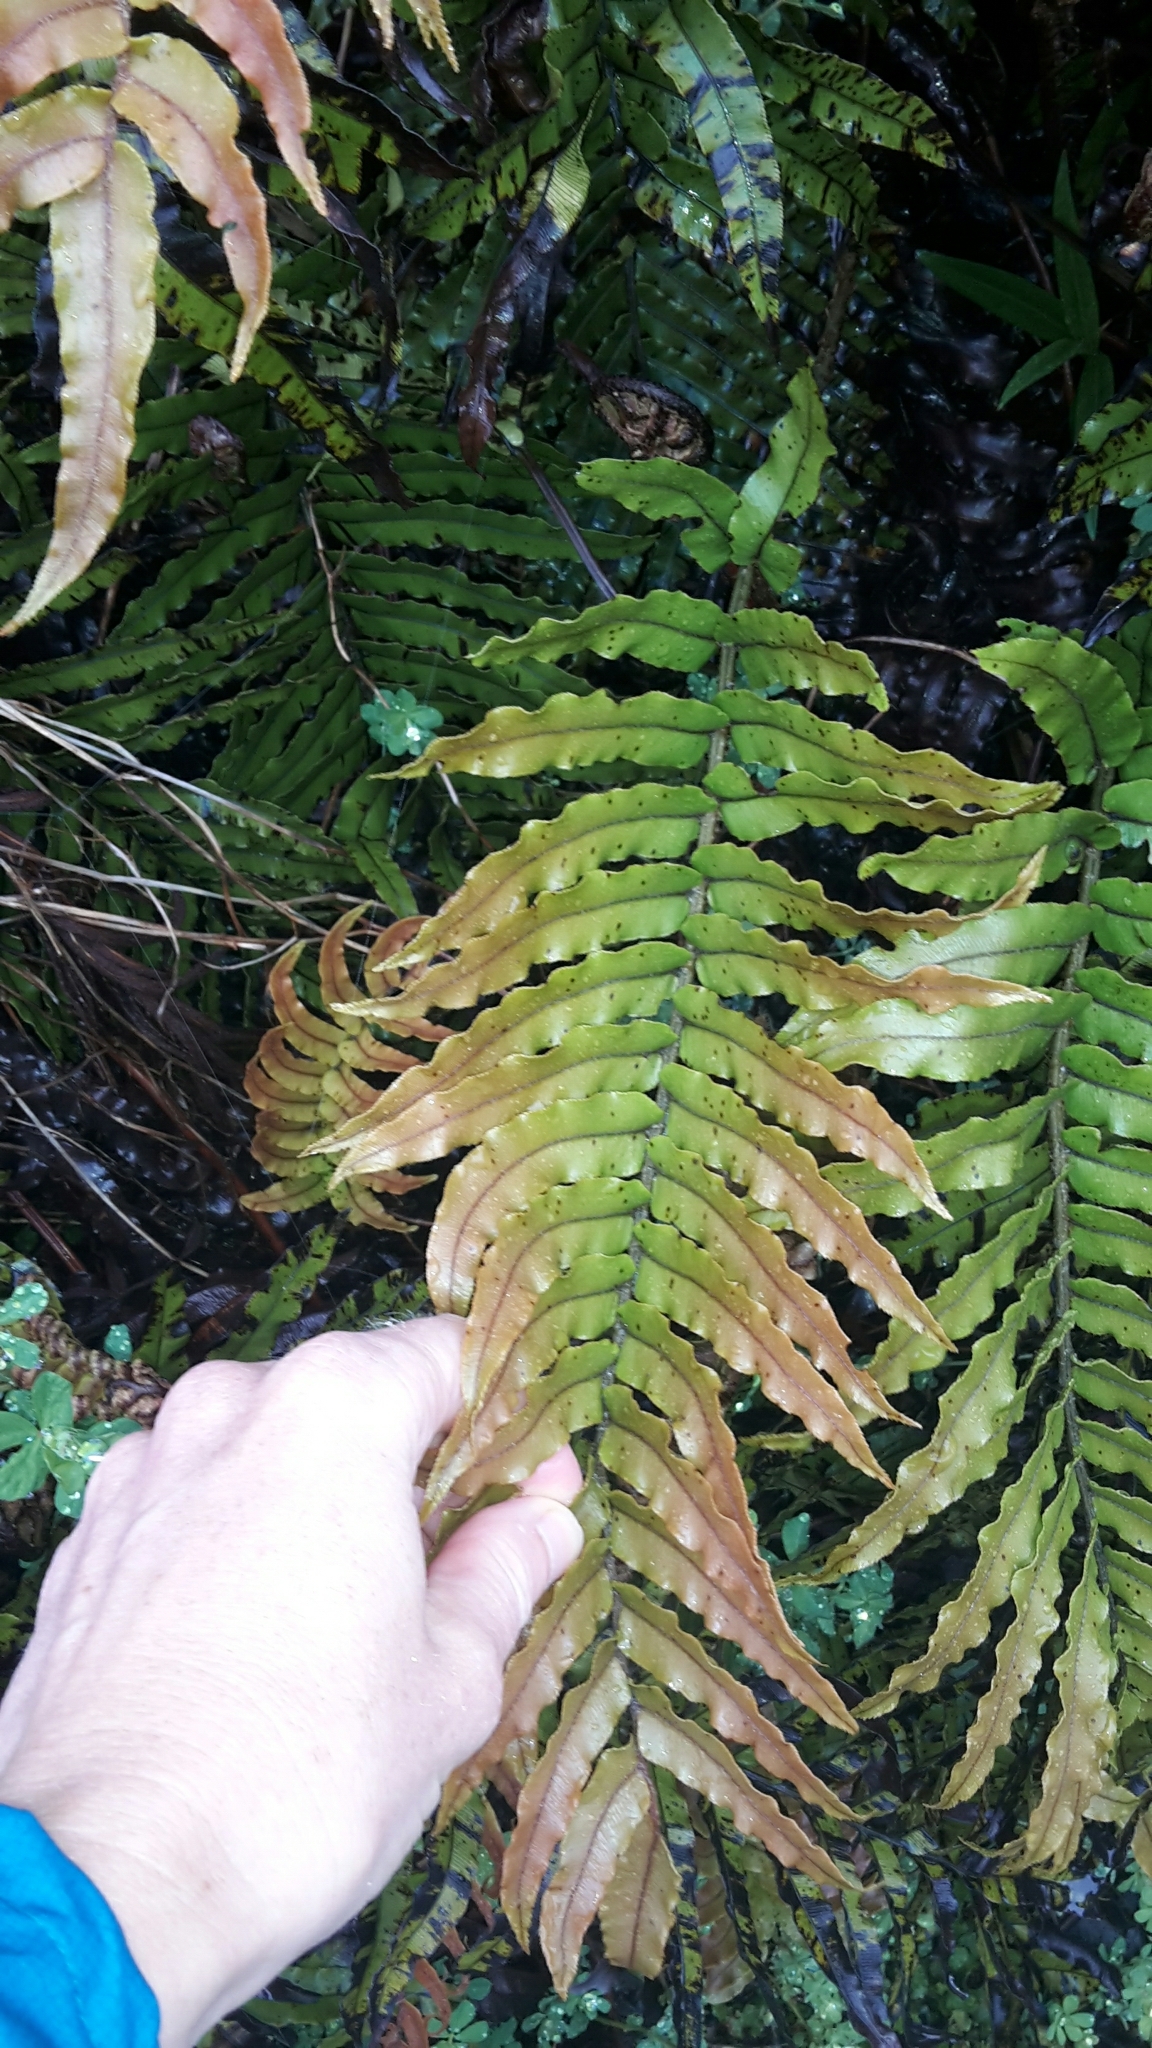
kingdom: Plantae
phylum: Tracheophyta
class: Polypodiopsida
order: Polypodiales
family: Blechnaceae
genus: Parablechnum
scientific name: Parablechnum montanum
